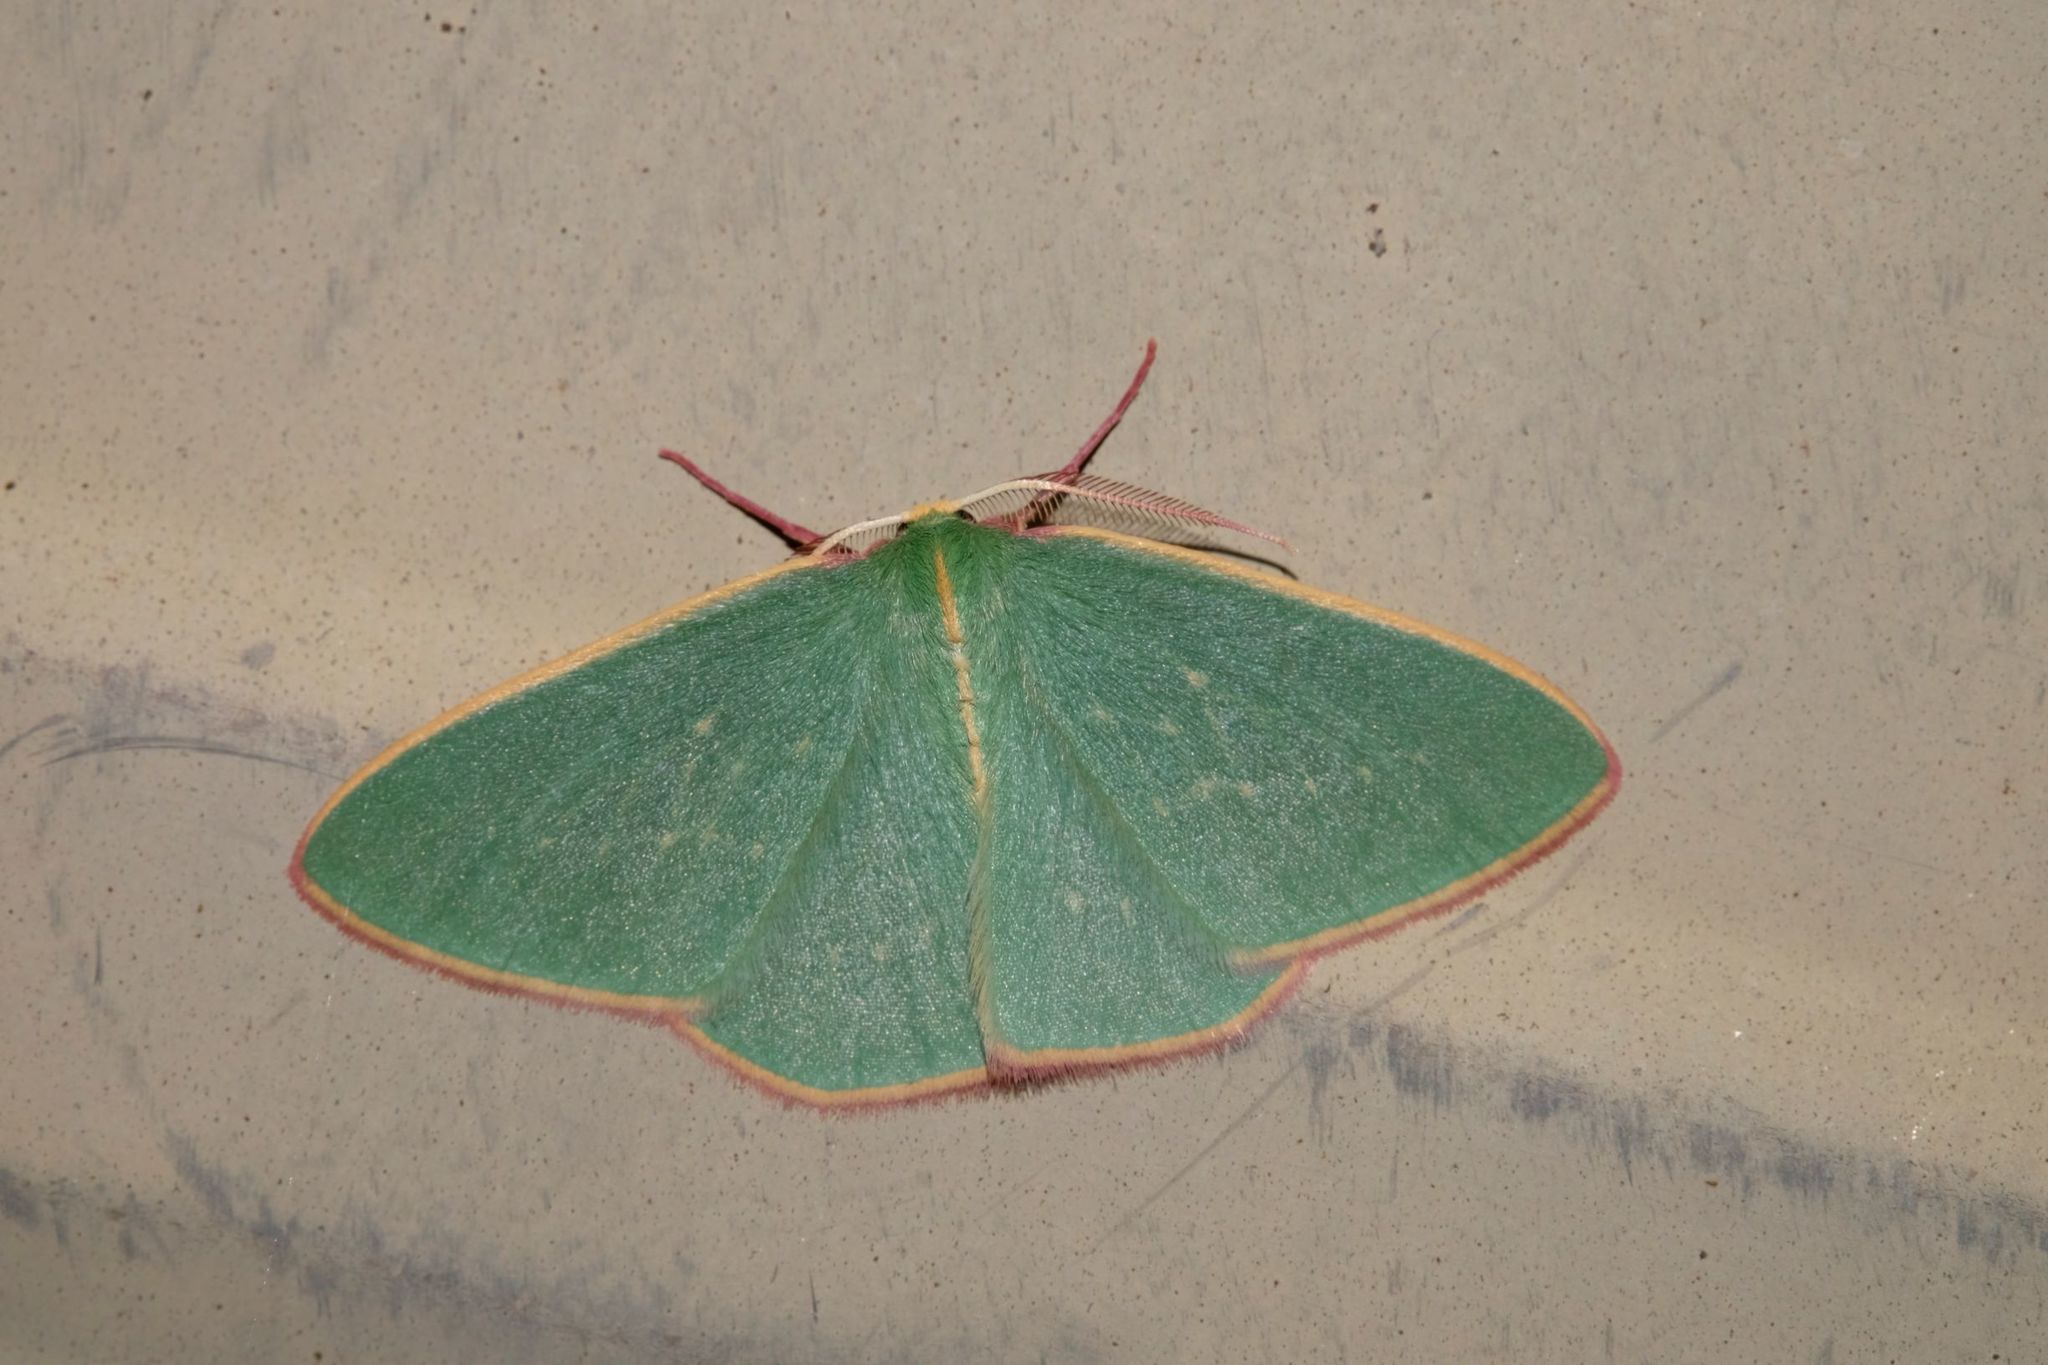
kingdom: Animalia
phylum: Arthropoda
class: Insecta
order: Lepidoptera
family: Geometridae
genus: Chlorocoma
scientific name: Chlorocoma dichloraria
